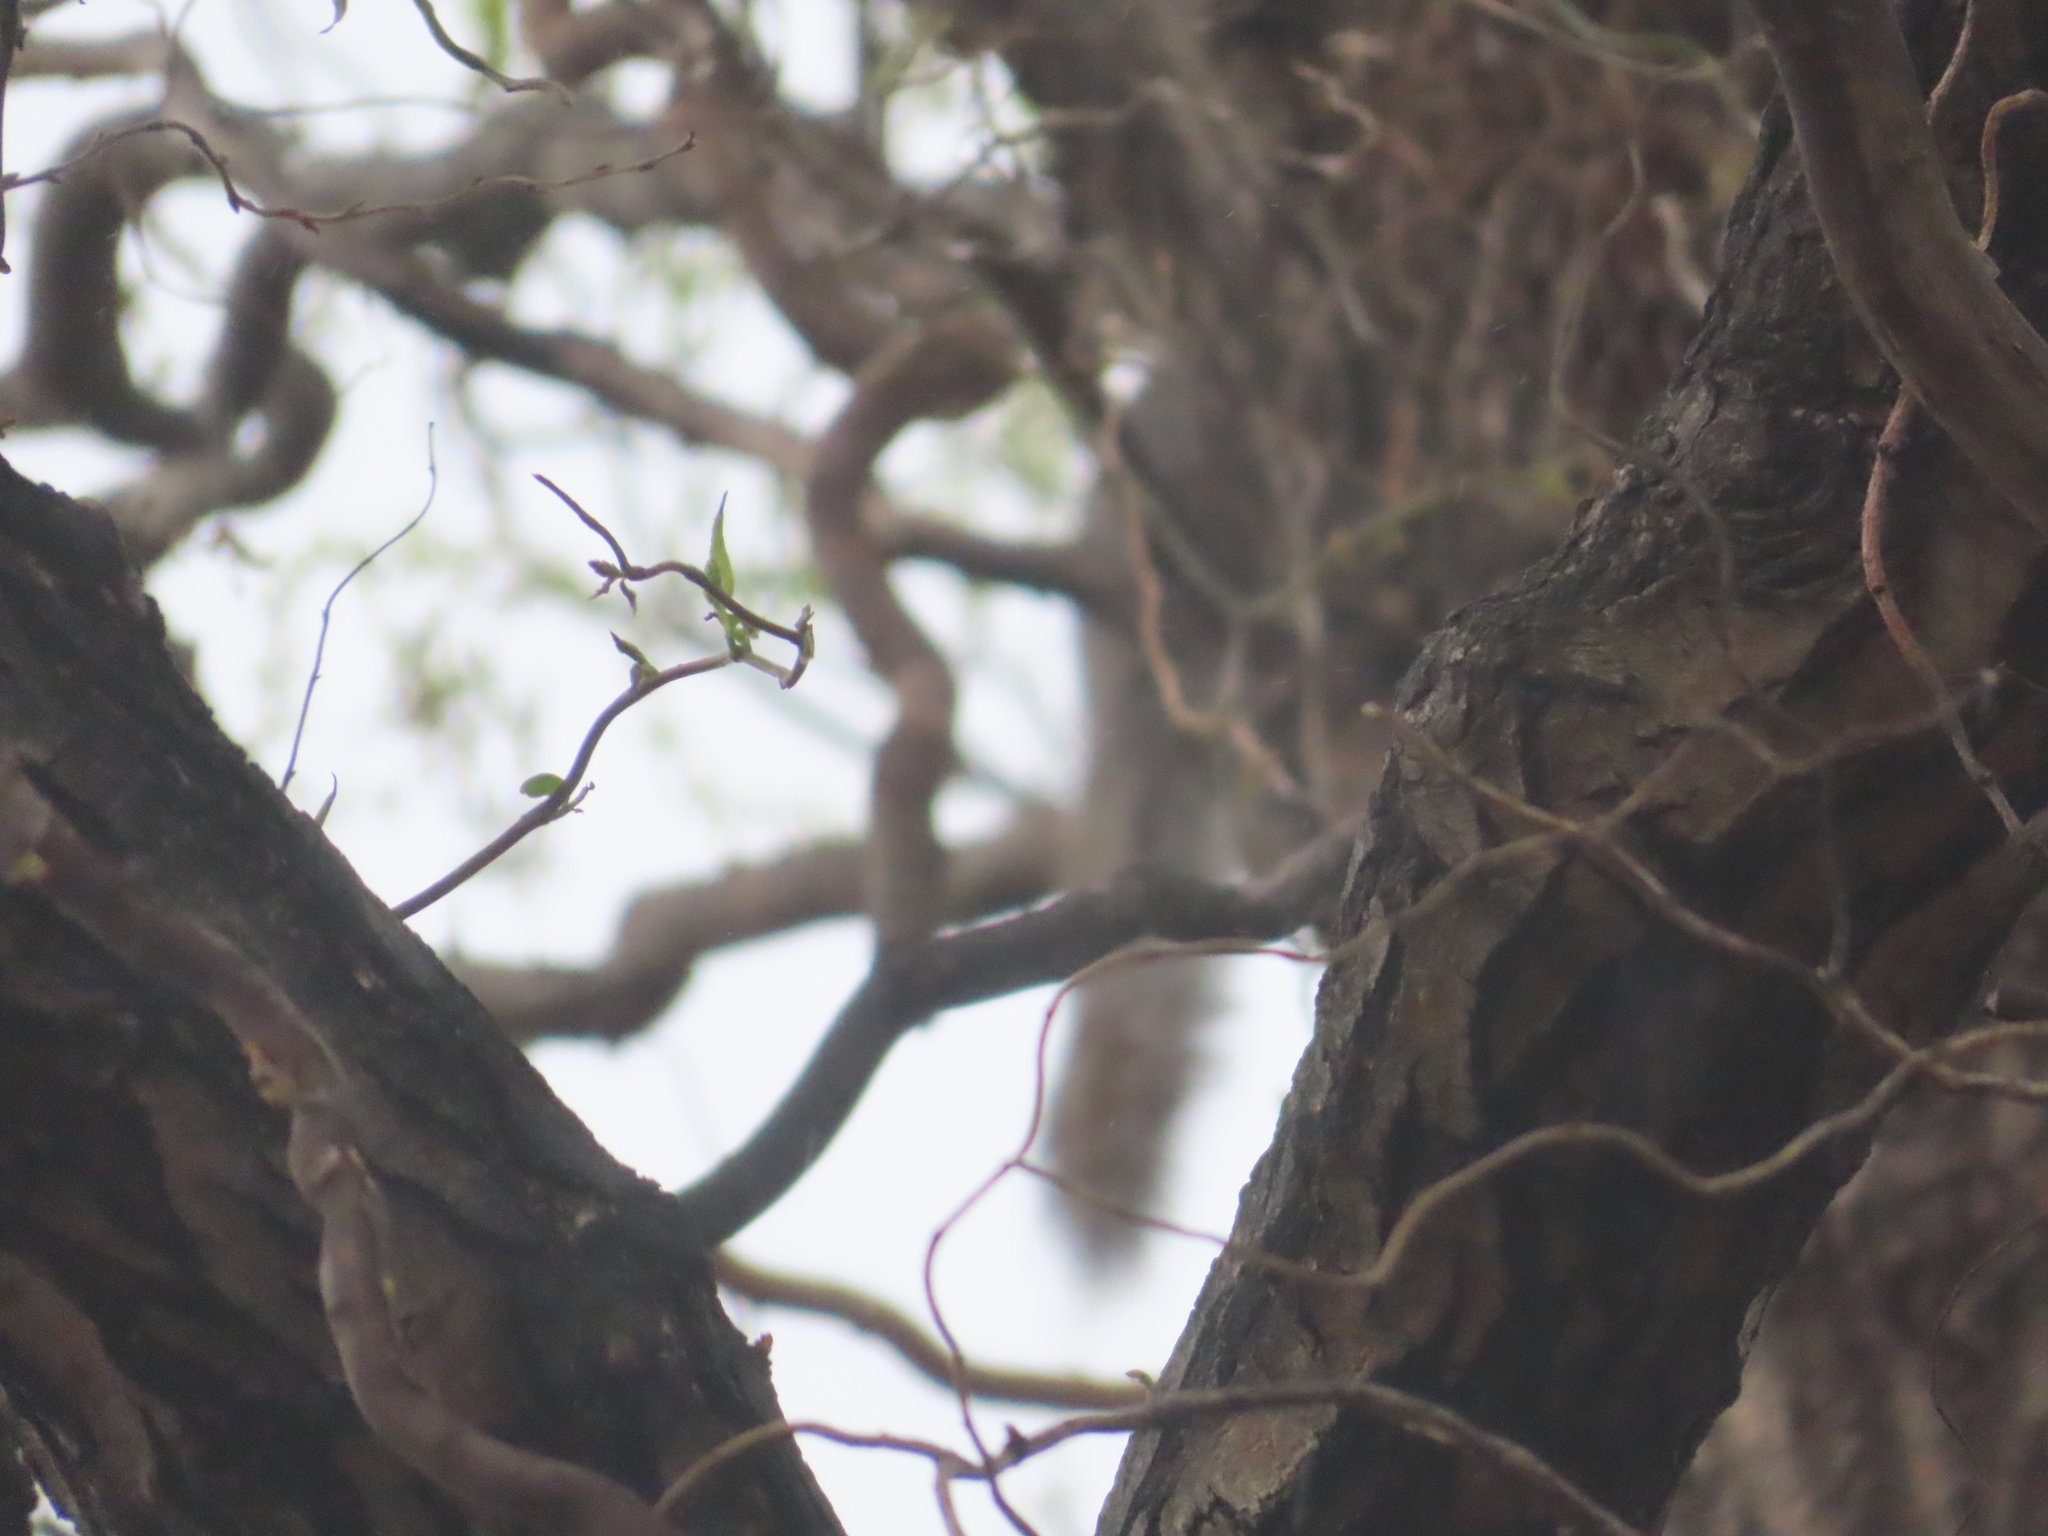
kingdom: Animalia
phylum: Chordata
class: Mammalia
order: Rodentia
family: Sciuridae
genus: Sciurus
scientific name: Sciurus carolinensis
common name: Eastern gray squirrel
